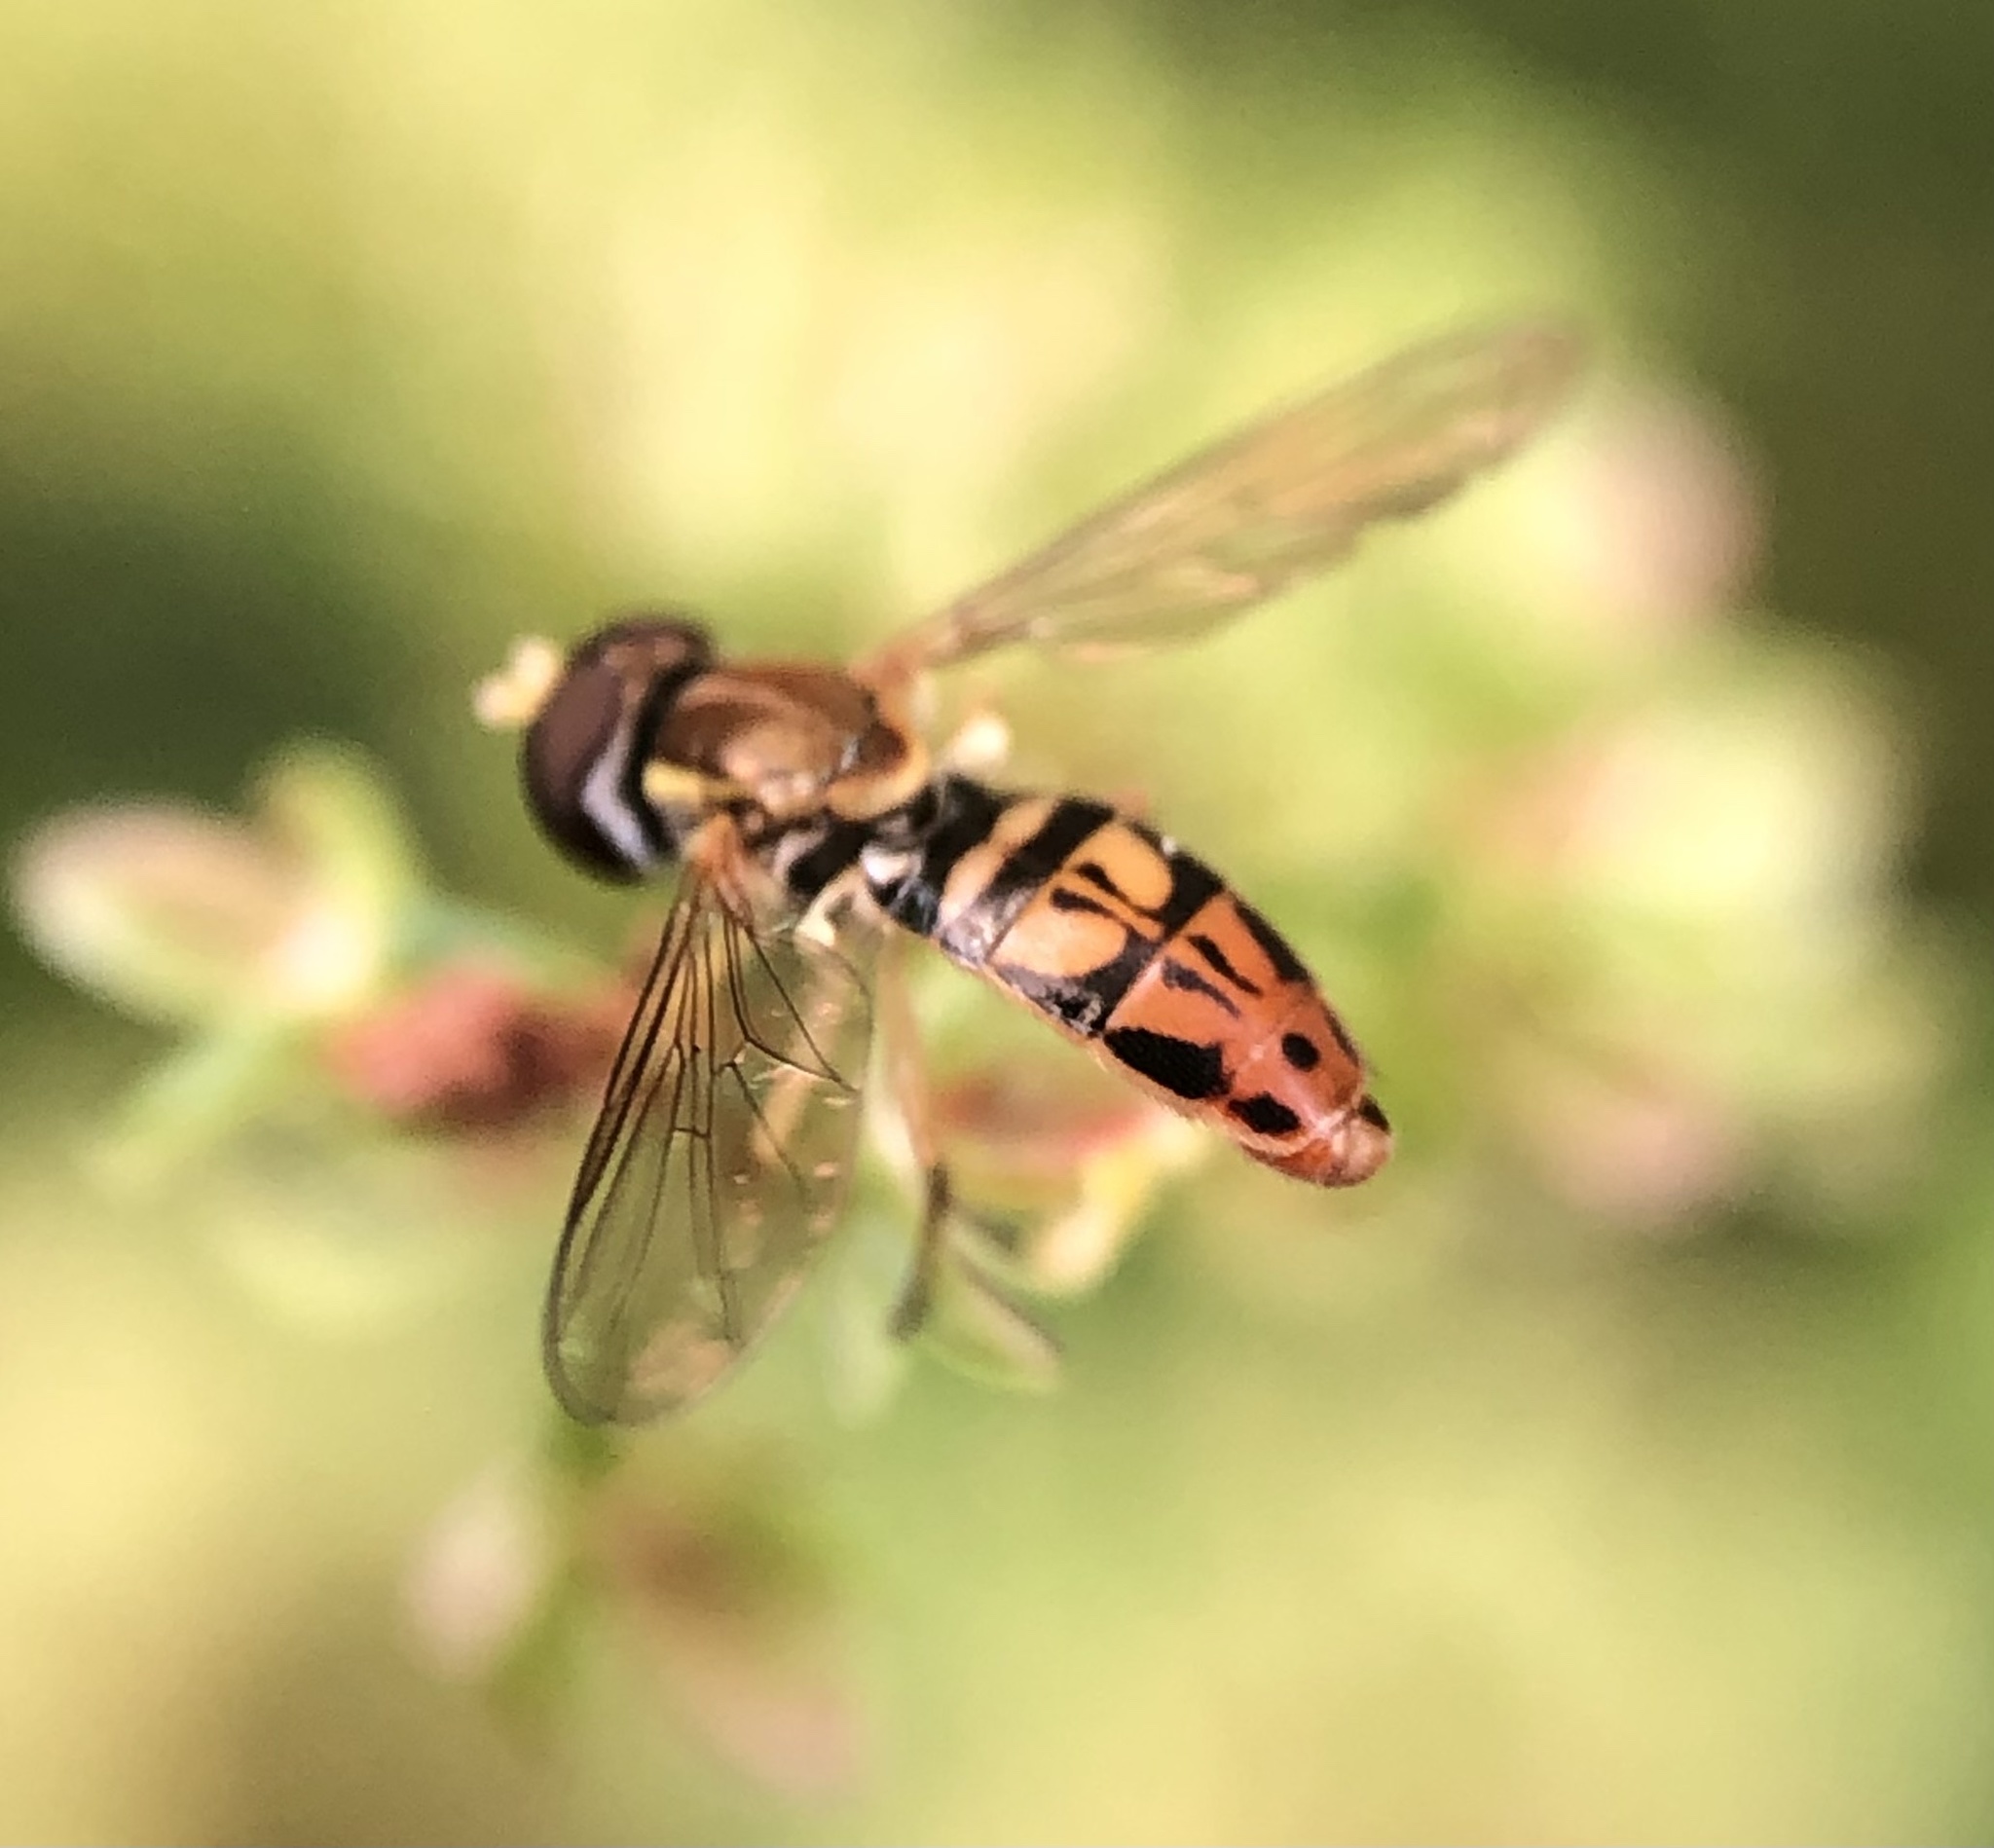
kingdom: Animalia
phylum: Arthropoda
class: Insecta
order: Diptera
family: Syrphidae
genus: Toxomerus
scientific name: Toxomerus marginatus
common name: Syrphid fly
